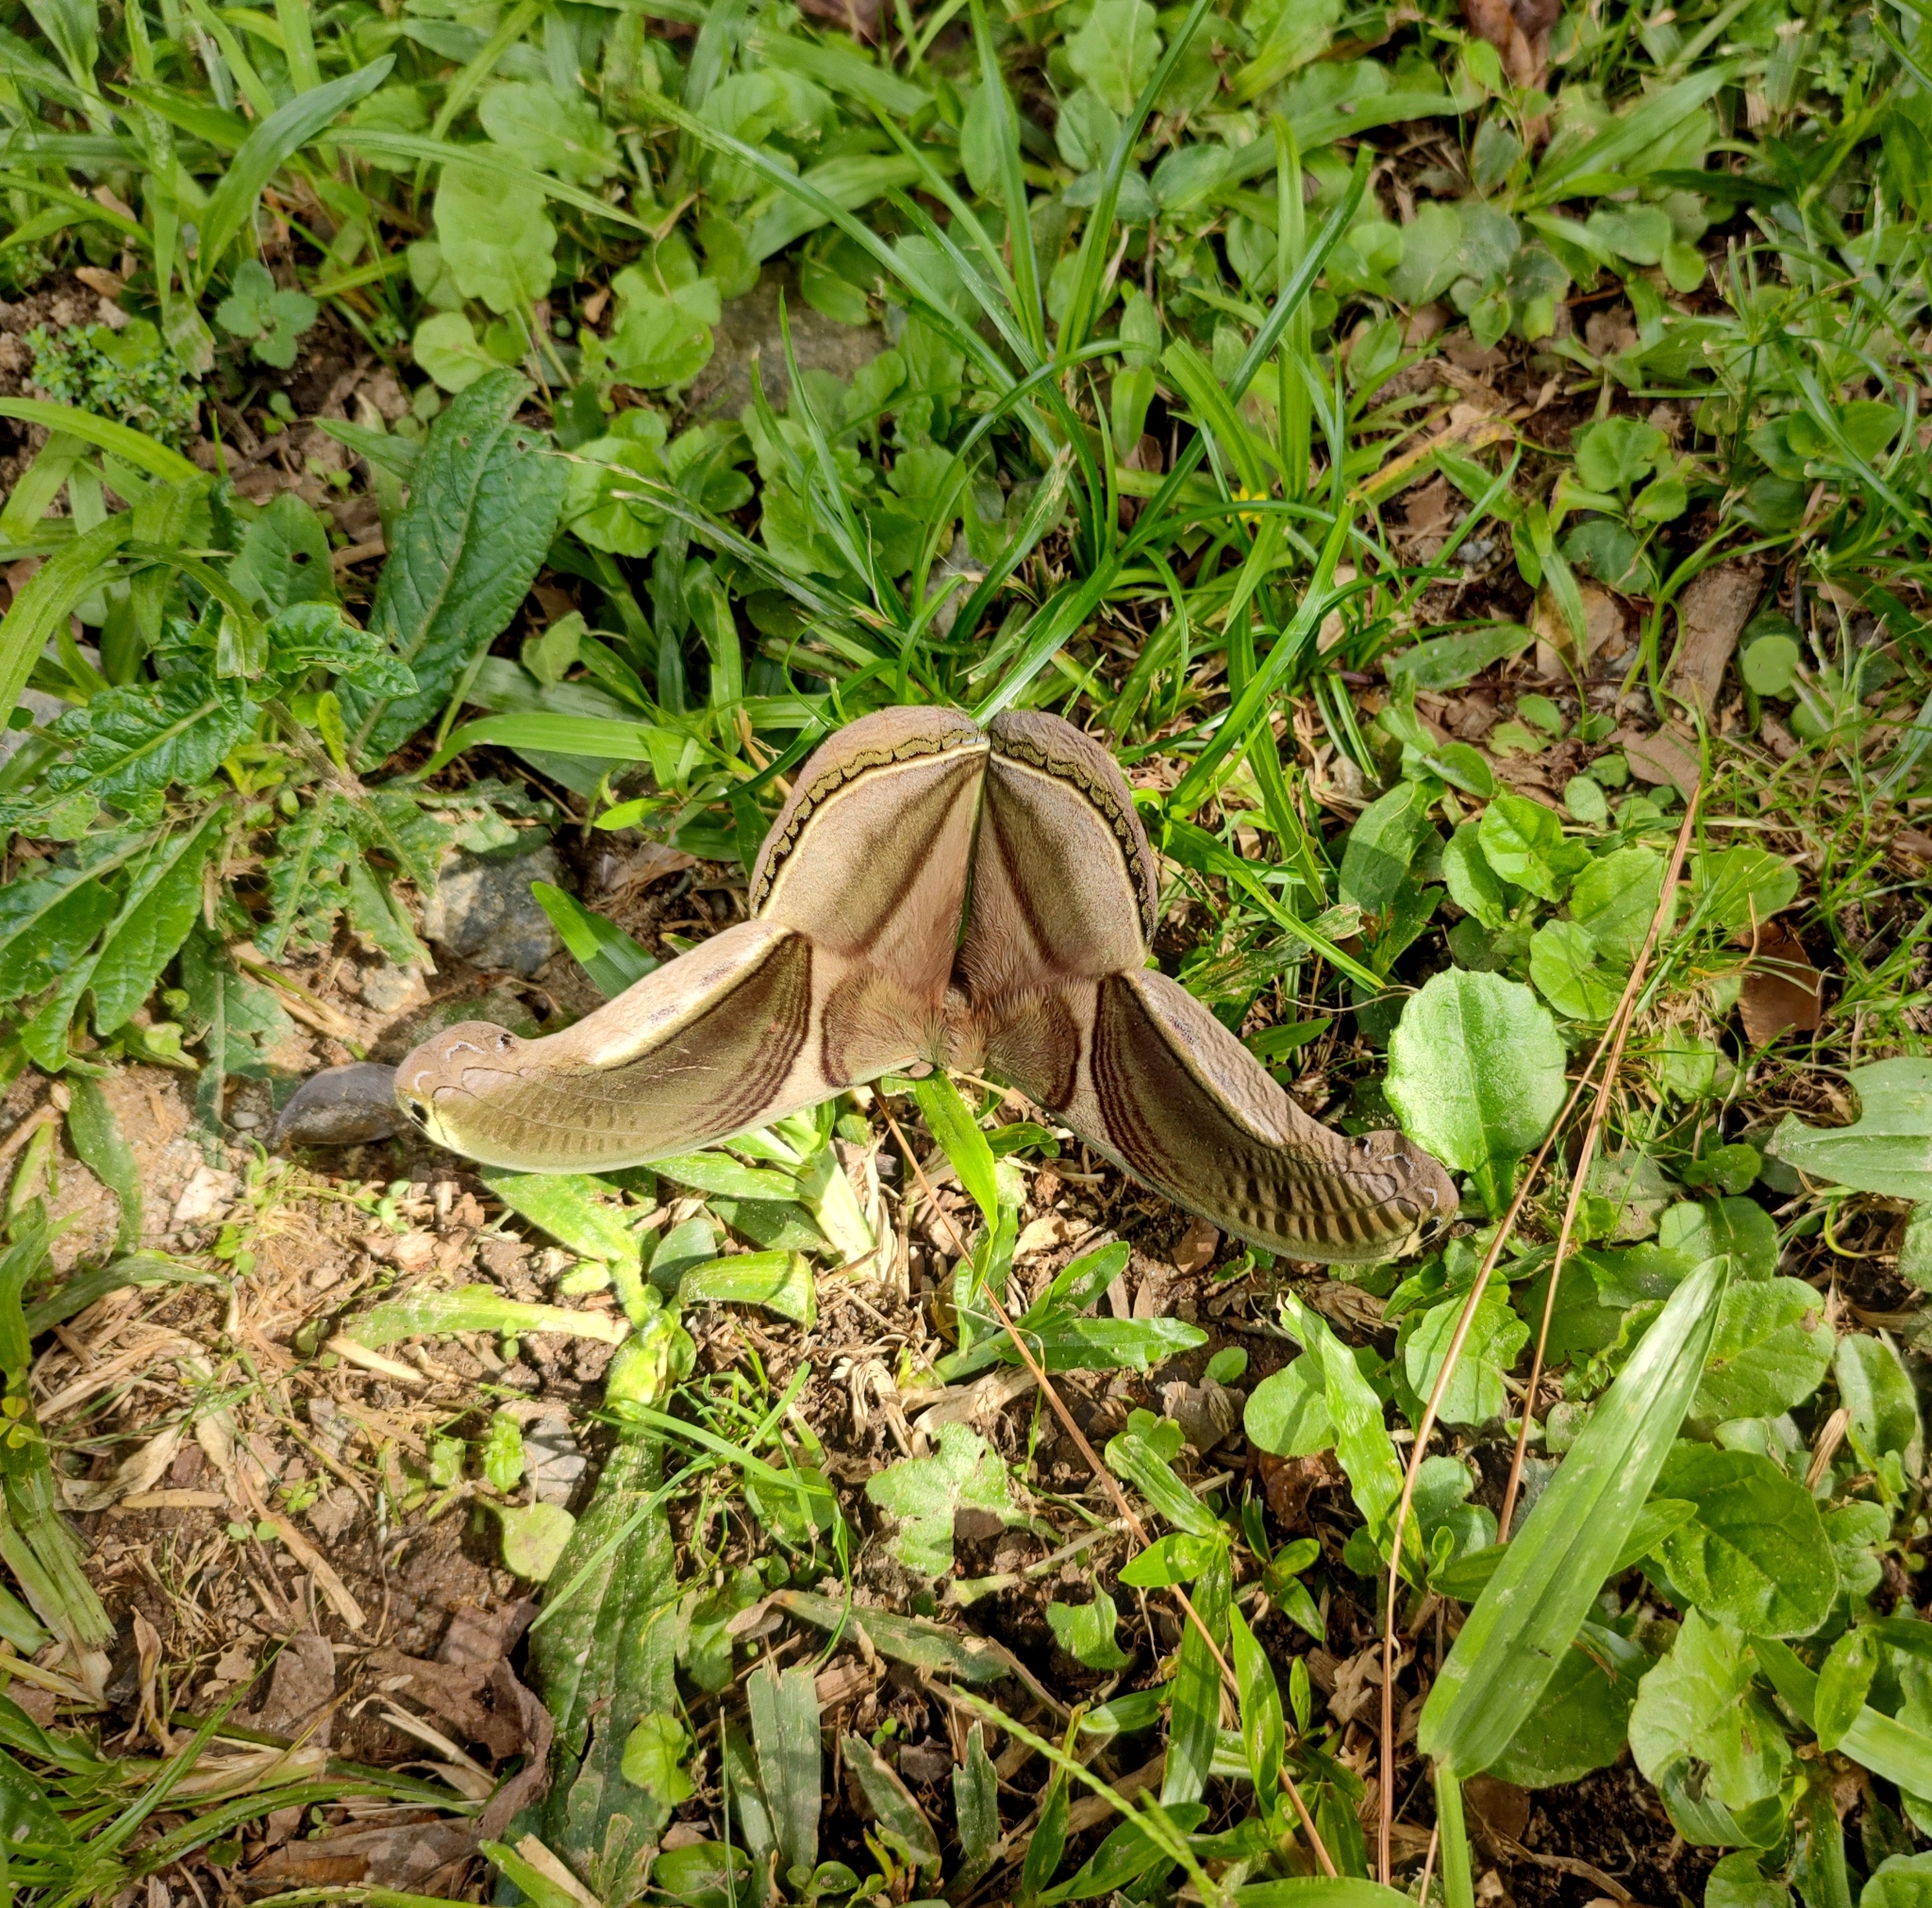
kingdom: Animalia
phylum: Arthropoda
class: Insecta
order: Lepidoptera
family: Saturniidae
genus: Rhescyntis
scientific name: Rhescyntis pseudomartii
